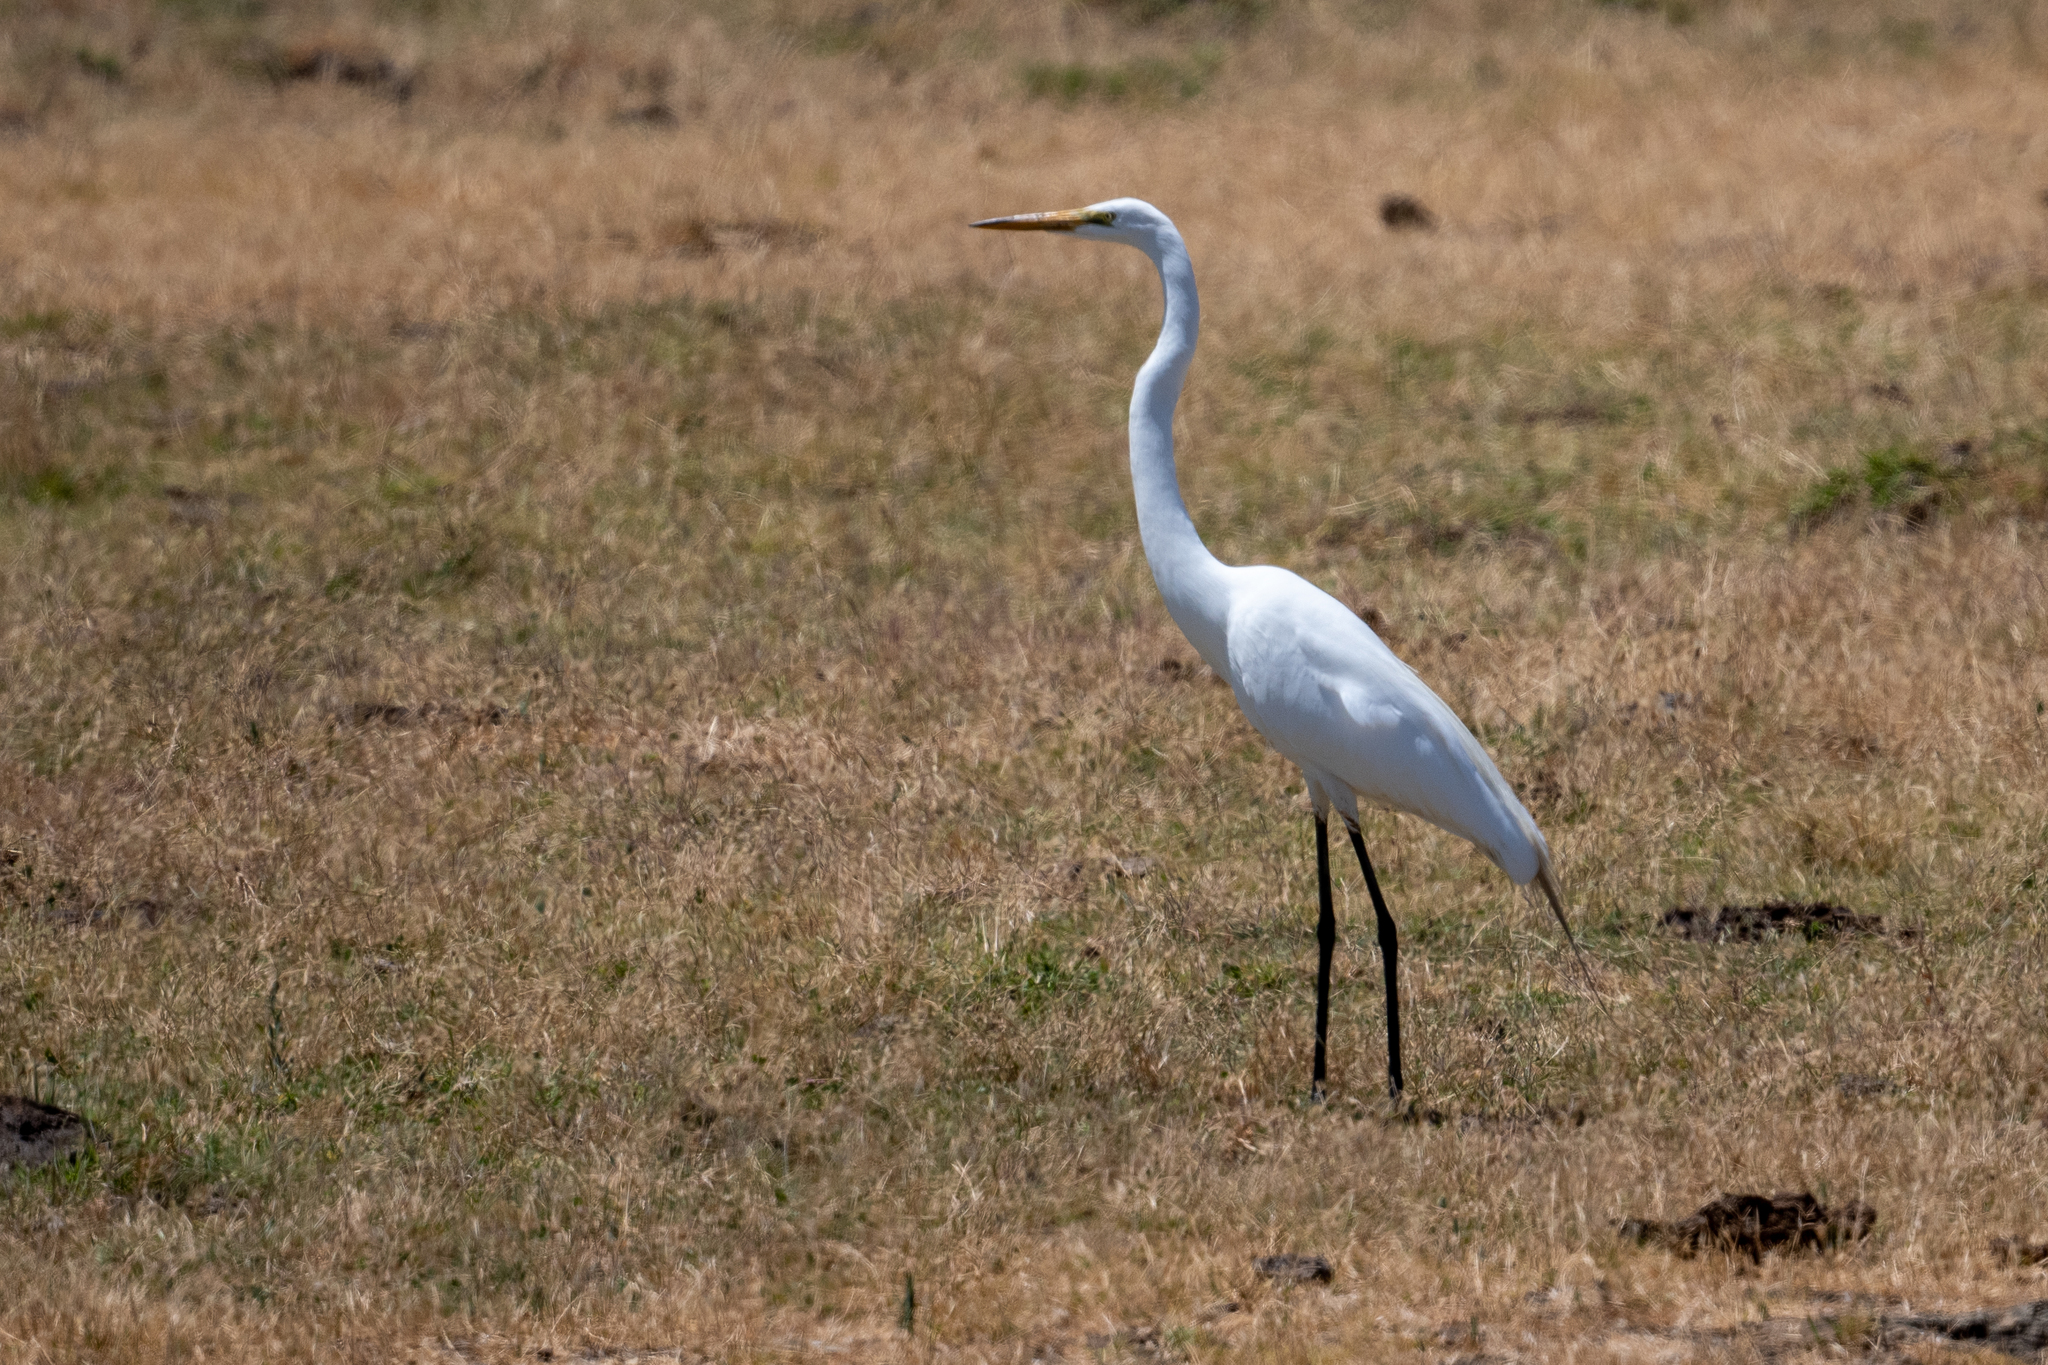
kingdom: Animalia
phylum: Chordata
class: Aves
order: Pelecaniformes
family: Ardeidae
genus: Ardea
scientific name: Ardea alba
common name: Great egret
